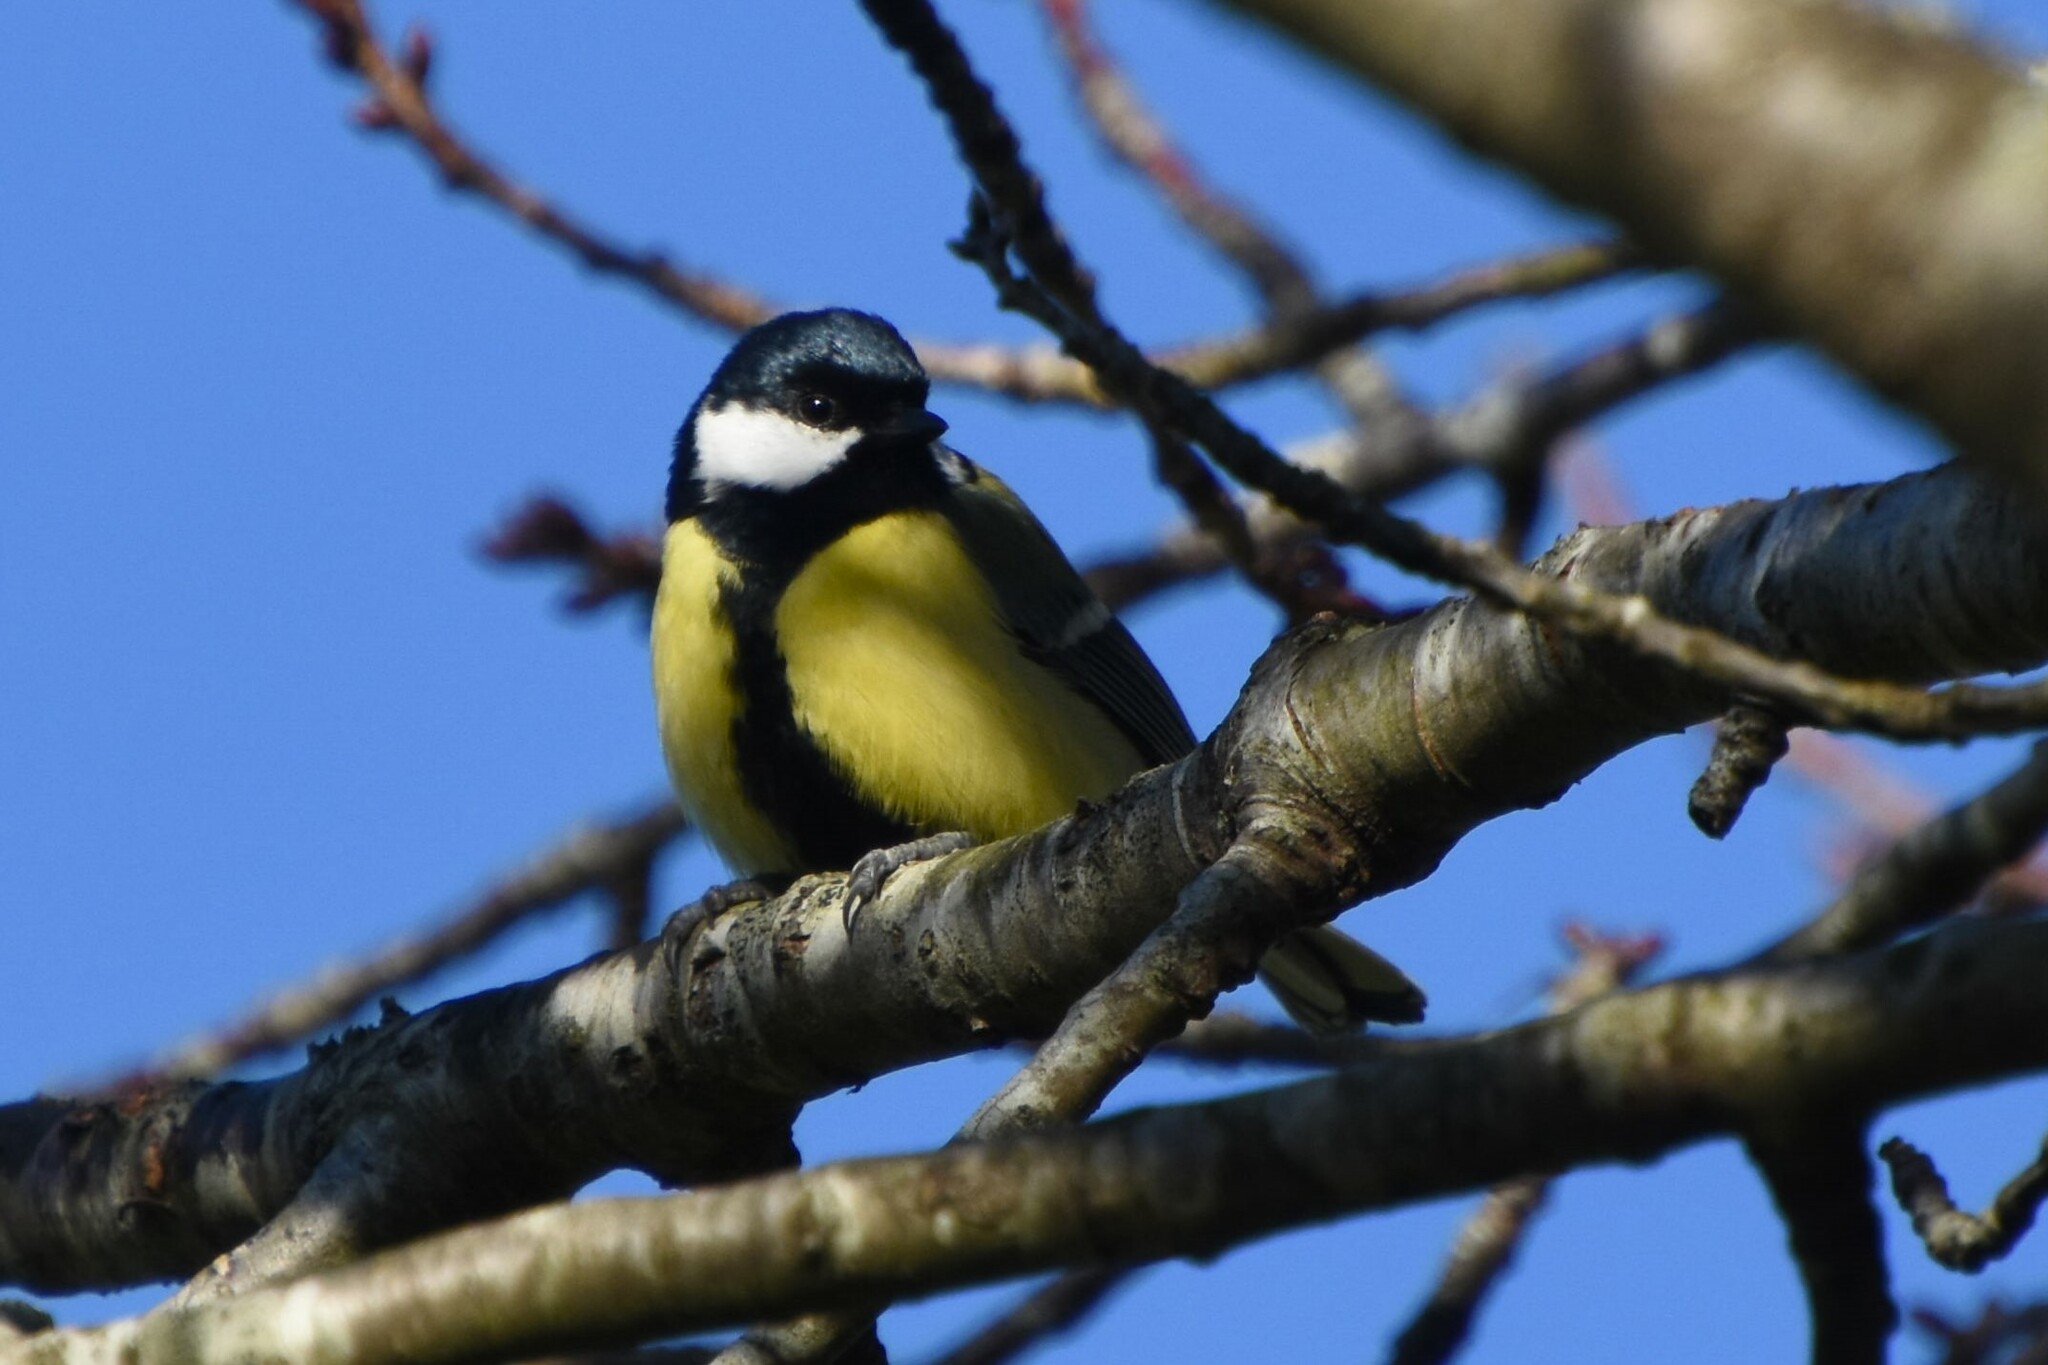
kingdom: Animalia
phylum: Chordata
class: Aves
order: Passeriformes
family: Paridae
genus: Parus
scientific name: Parus major
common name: Great tit
